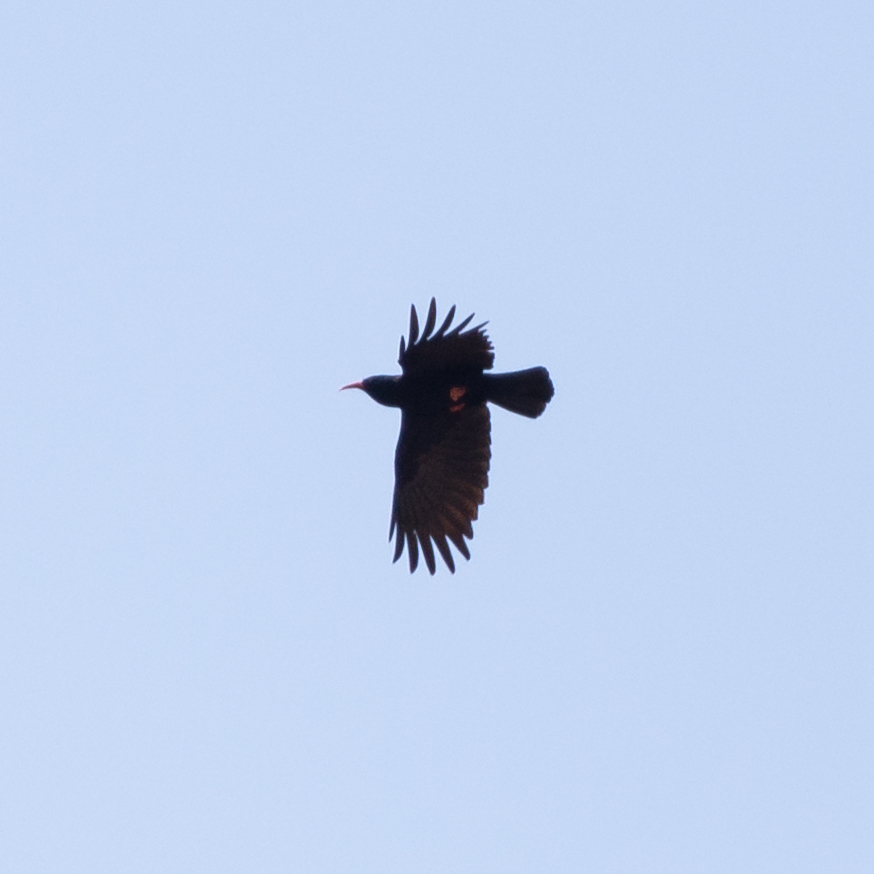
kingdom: Animalia
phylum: Chordata
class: Aves
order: Passeriformes
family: Corvidae
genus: Pyrrhocorax
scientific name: Pyrrhocorax pyrrhocorax
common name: Red-billed chough
